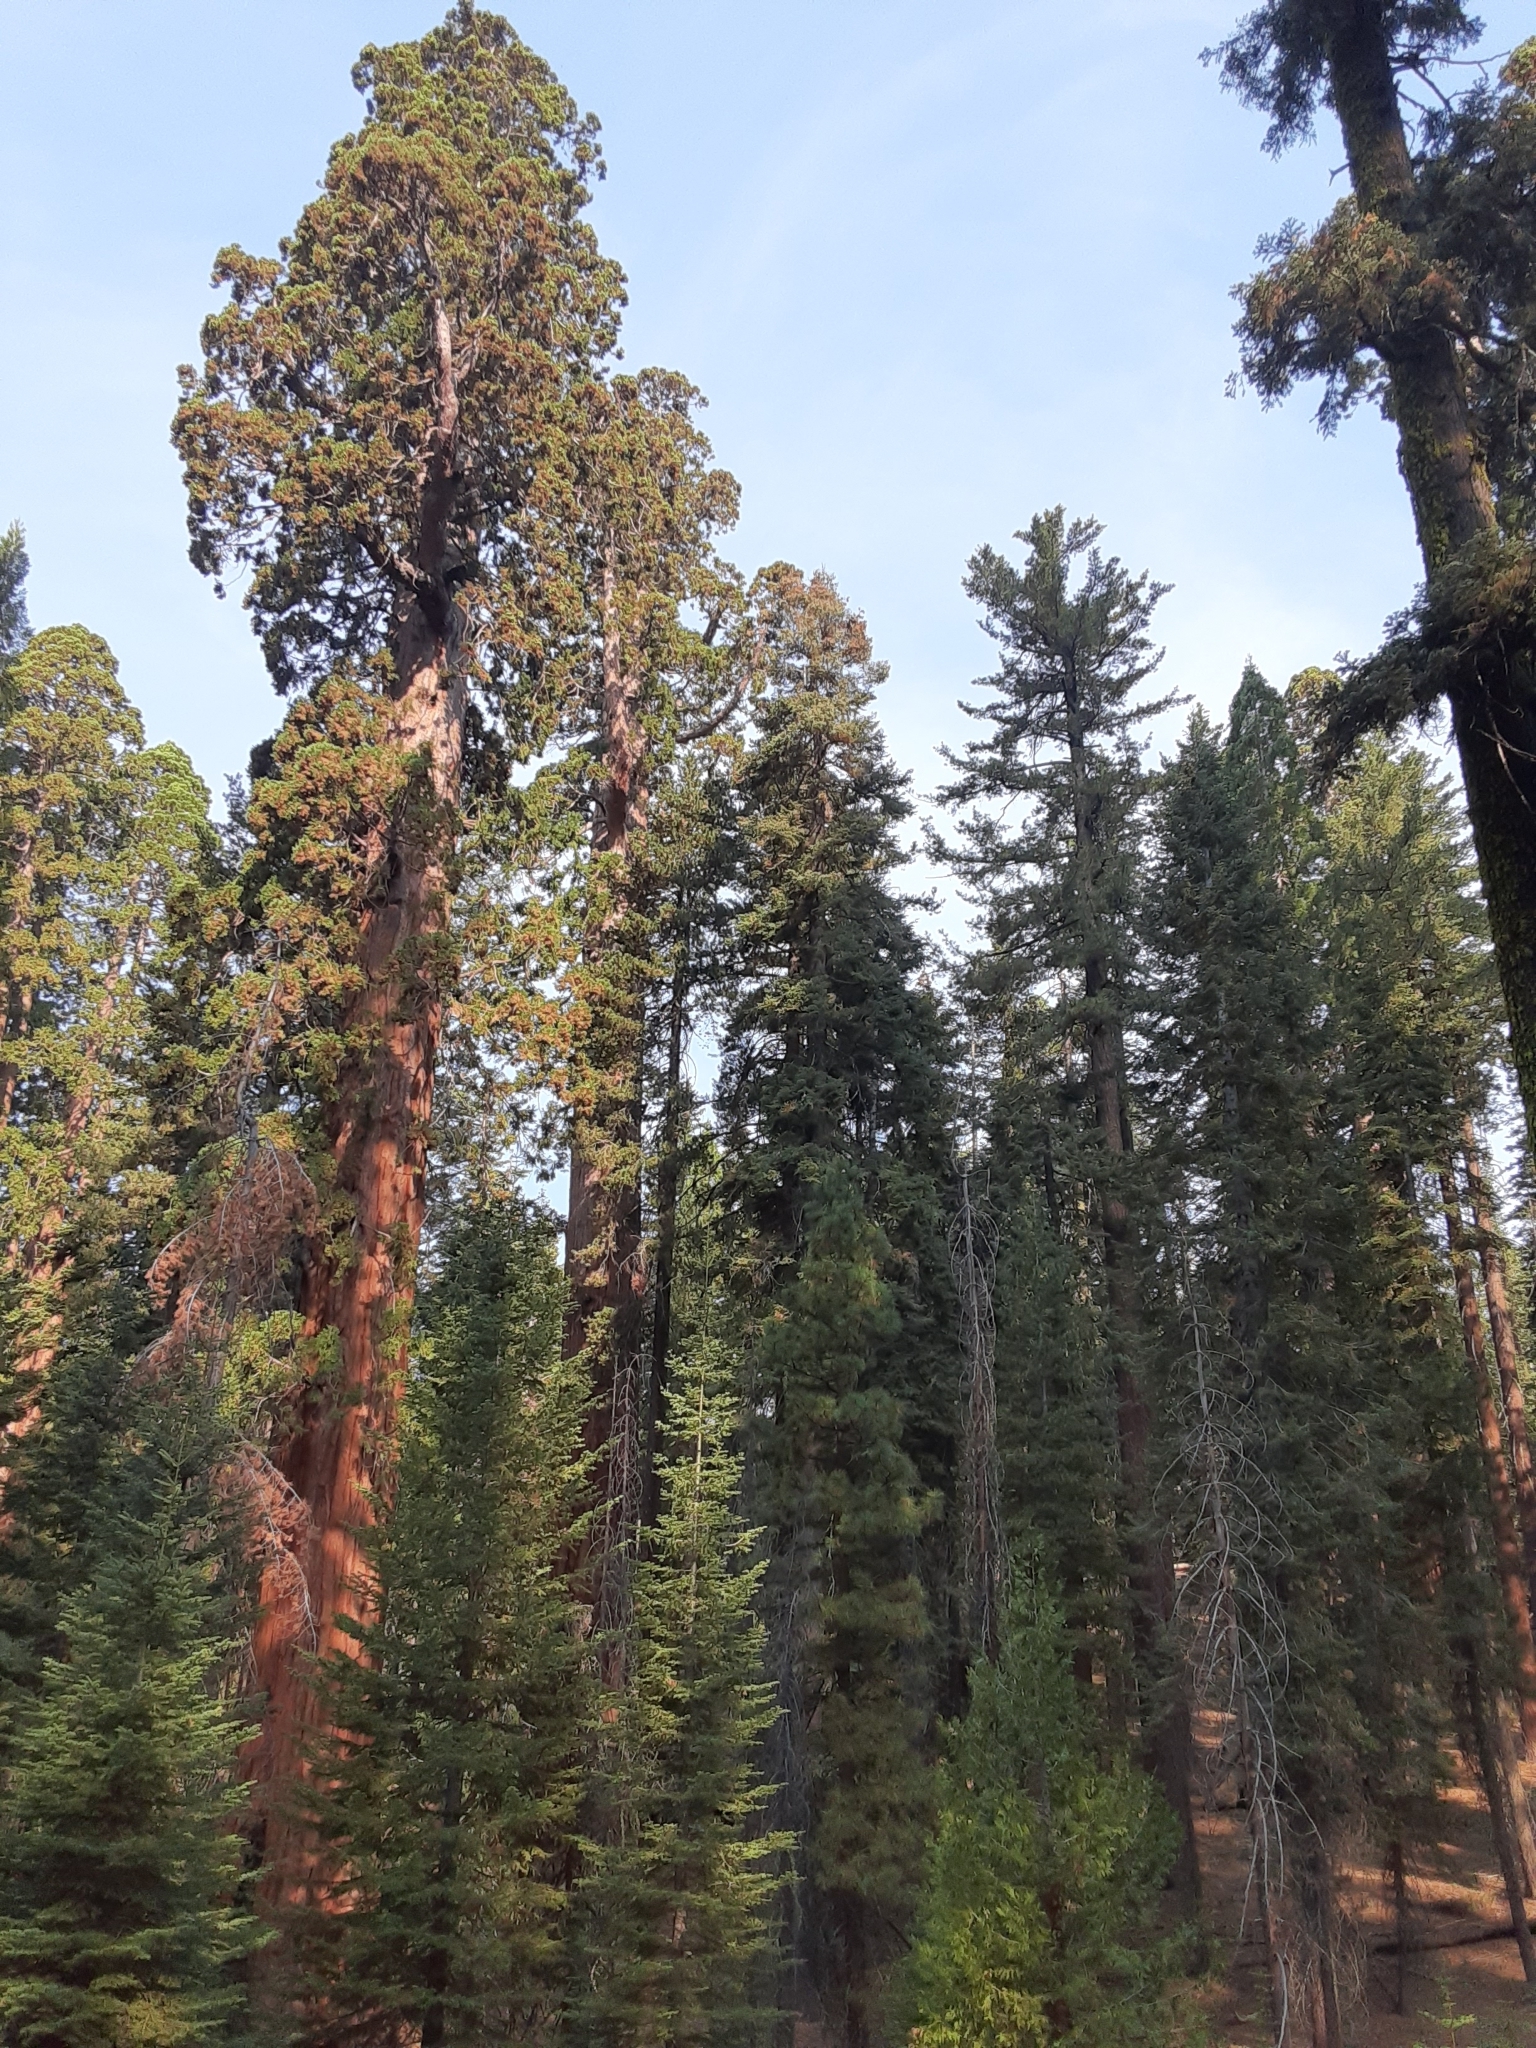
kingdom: Plantae
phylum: Tracheophyta
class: Pinopsida
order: Pinales
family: Cupressaceae
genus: Sequoiadendron
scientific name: Sequoiadendron giganteum
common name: Wellingtonia
